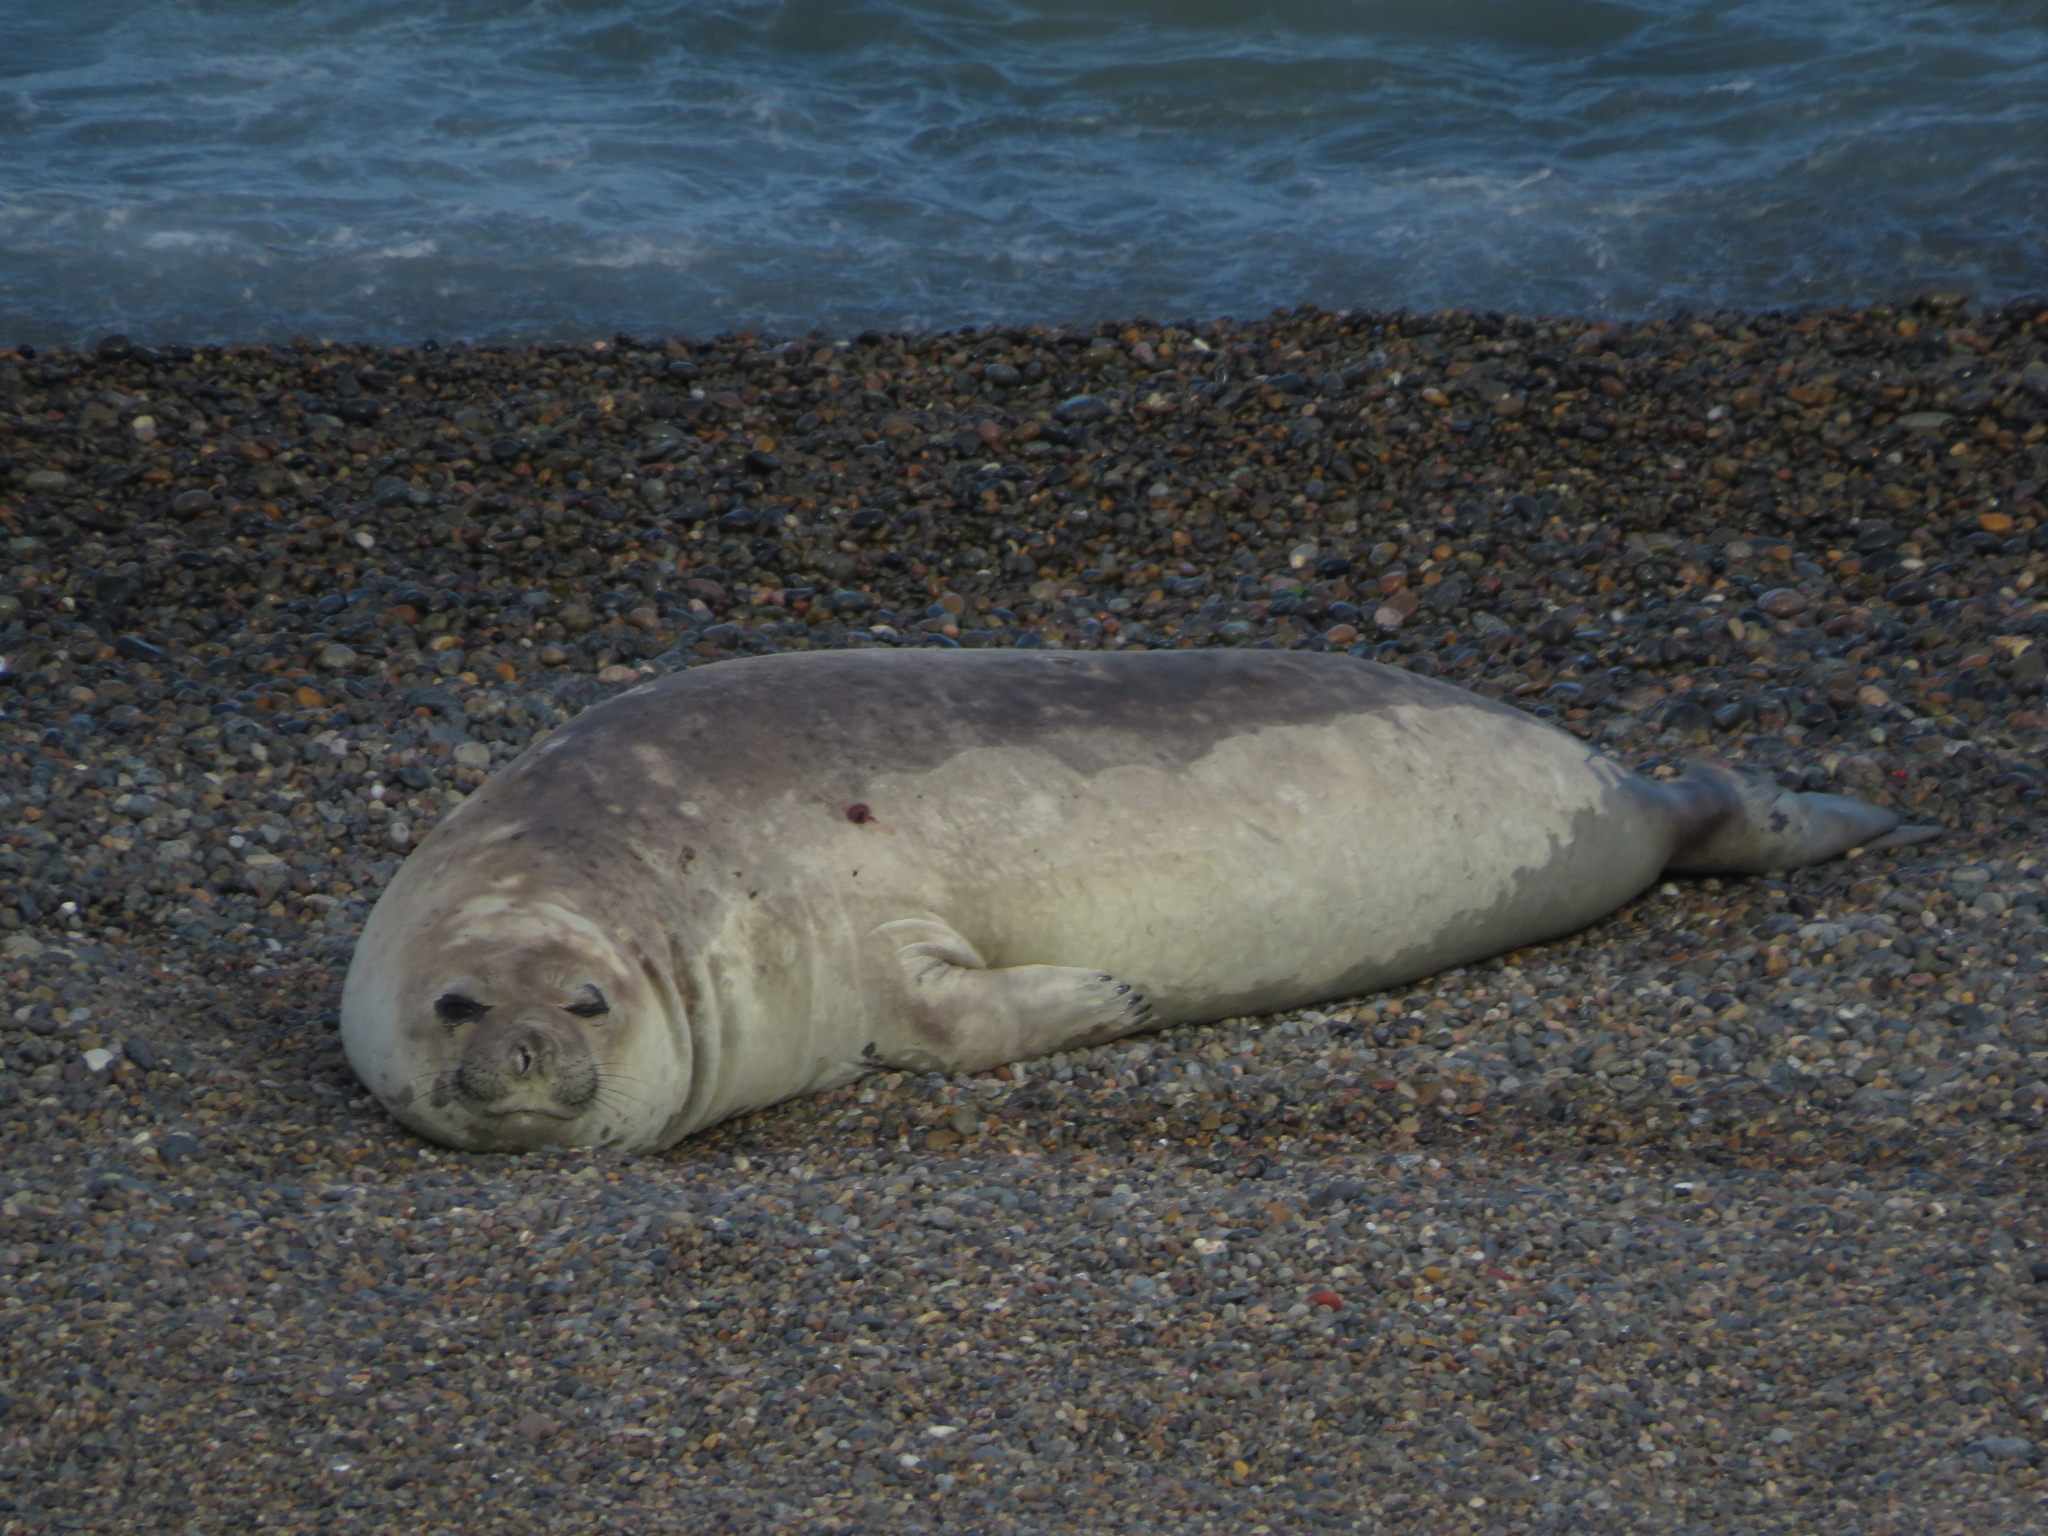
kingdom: Animalia
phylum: Chordata
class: Mammalia
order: Carnivora
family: Phocidae
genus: Mirounga
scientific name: Mirounga leonina
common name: Southern elephant seal
